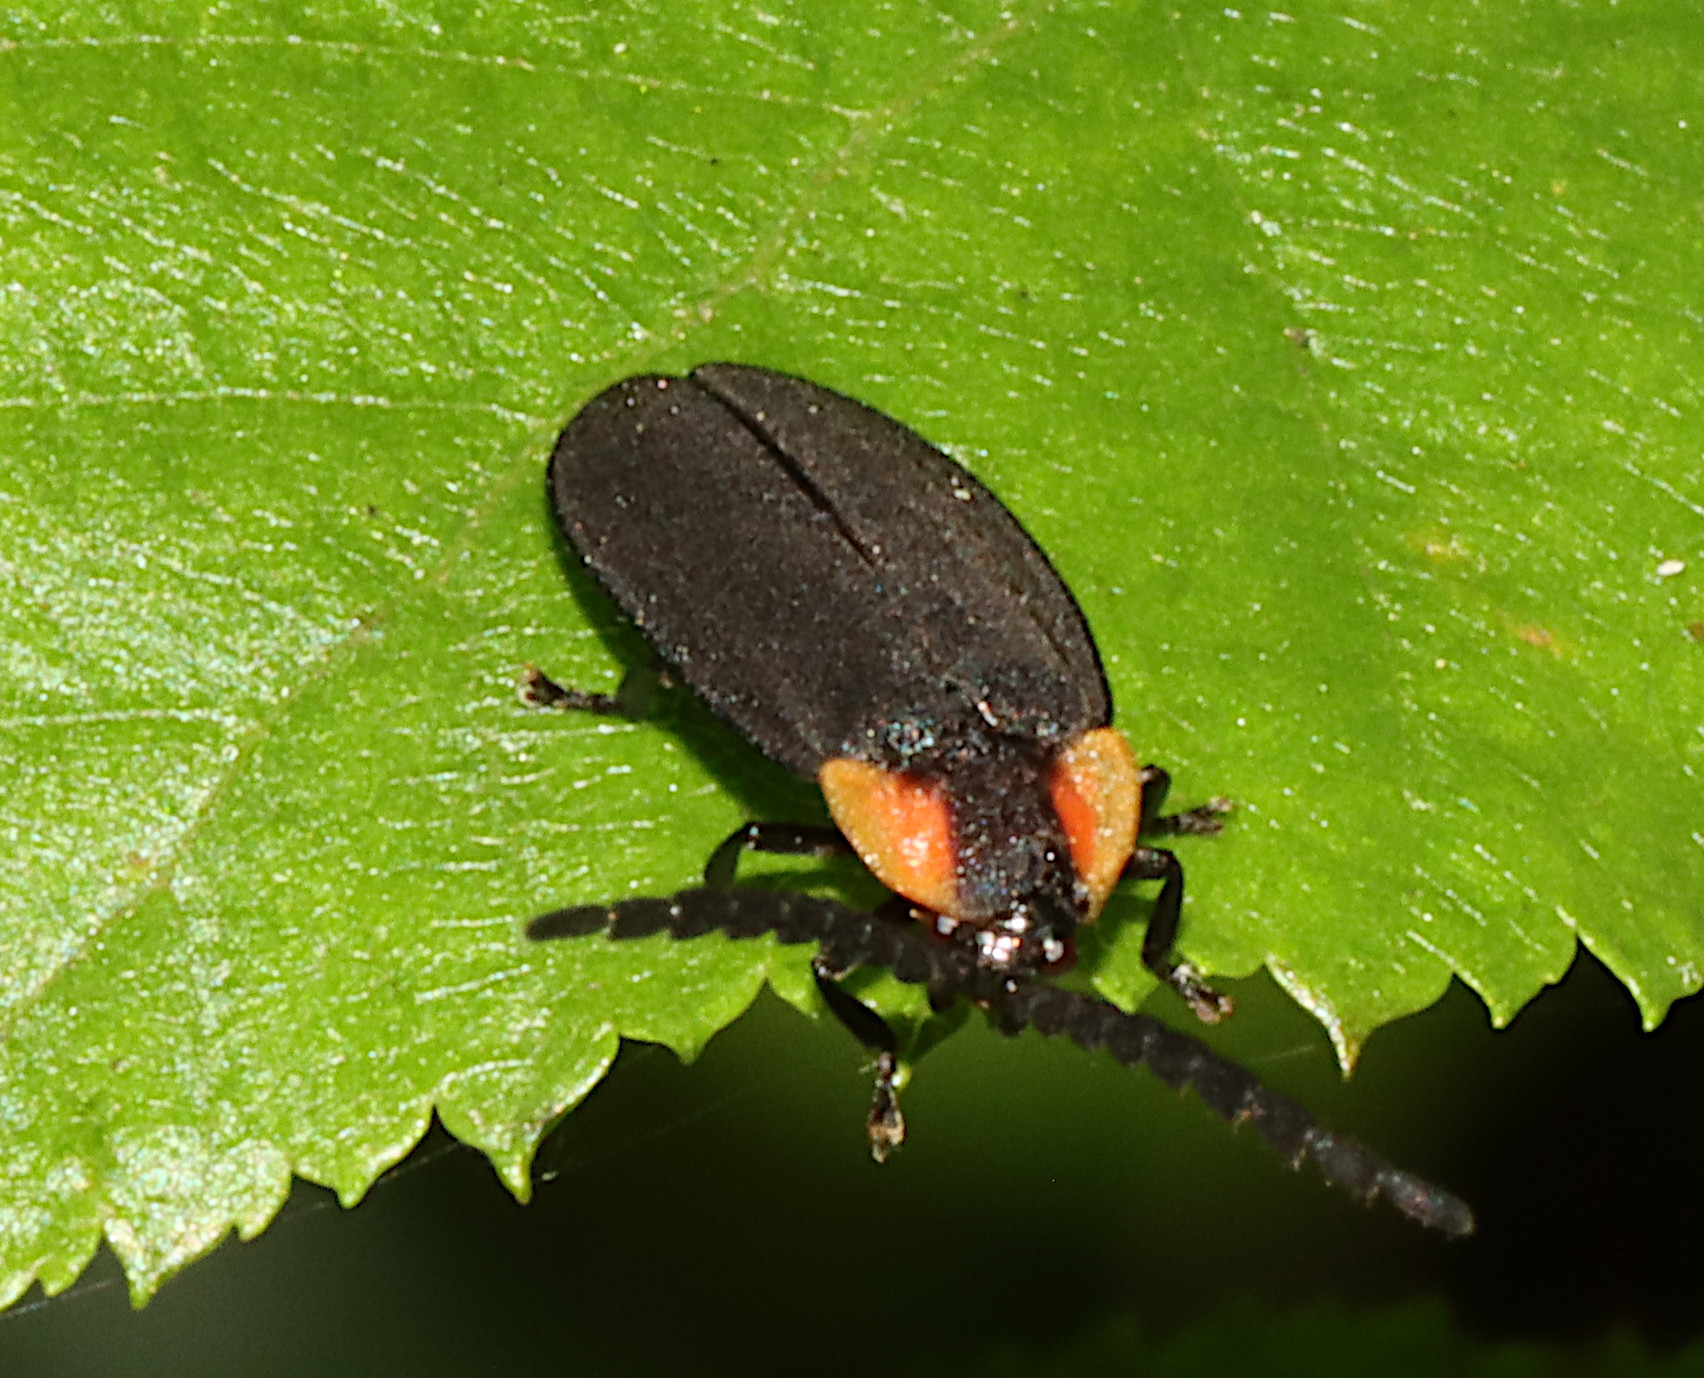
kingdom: Animalia
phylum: Arthropoda
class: Insecta
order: Coleoptera
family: Lampyridae
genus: Lucidota
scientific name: Lucidota atra
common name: Black firefly
